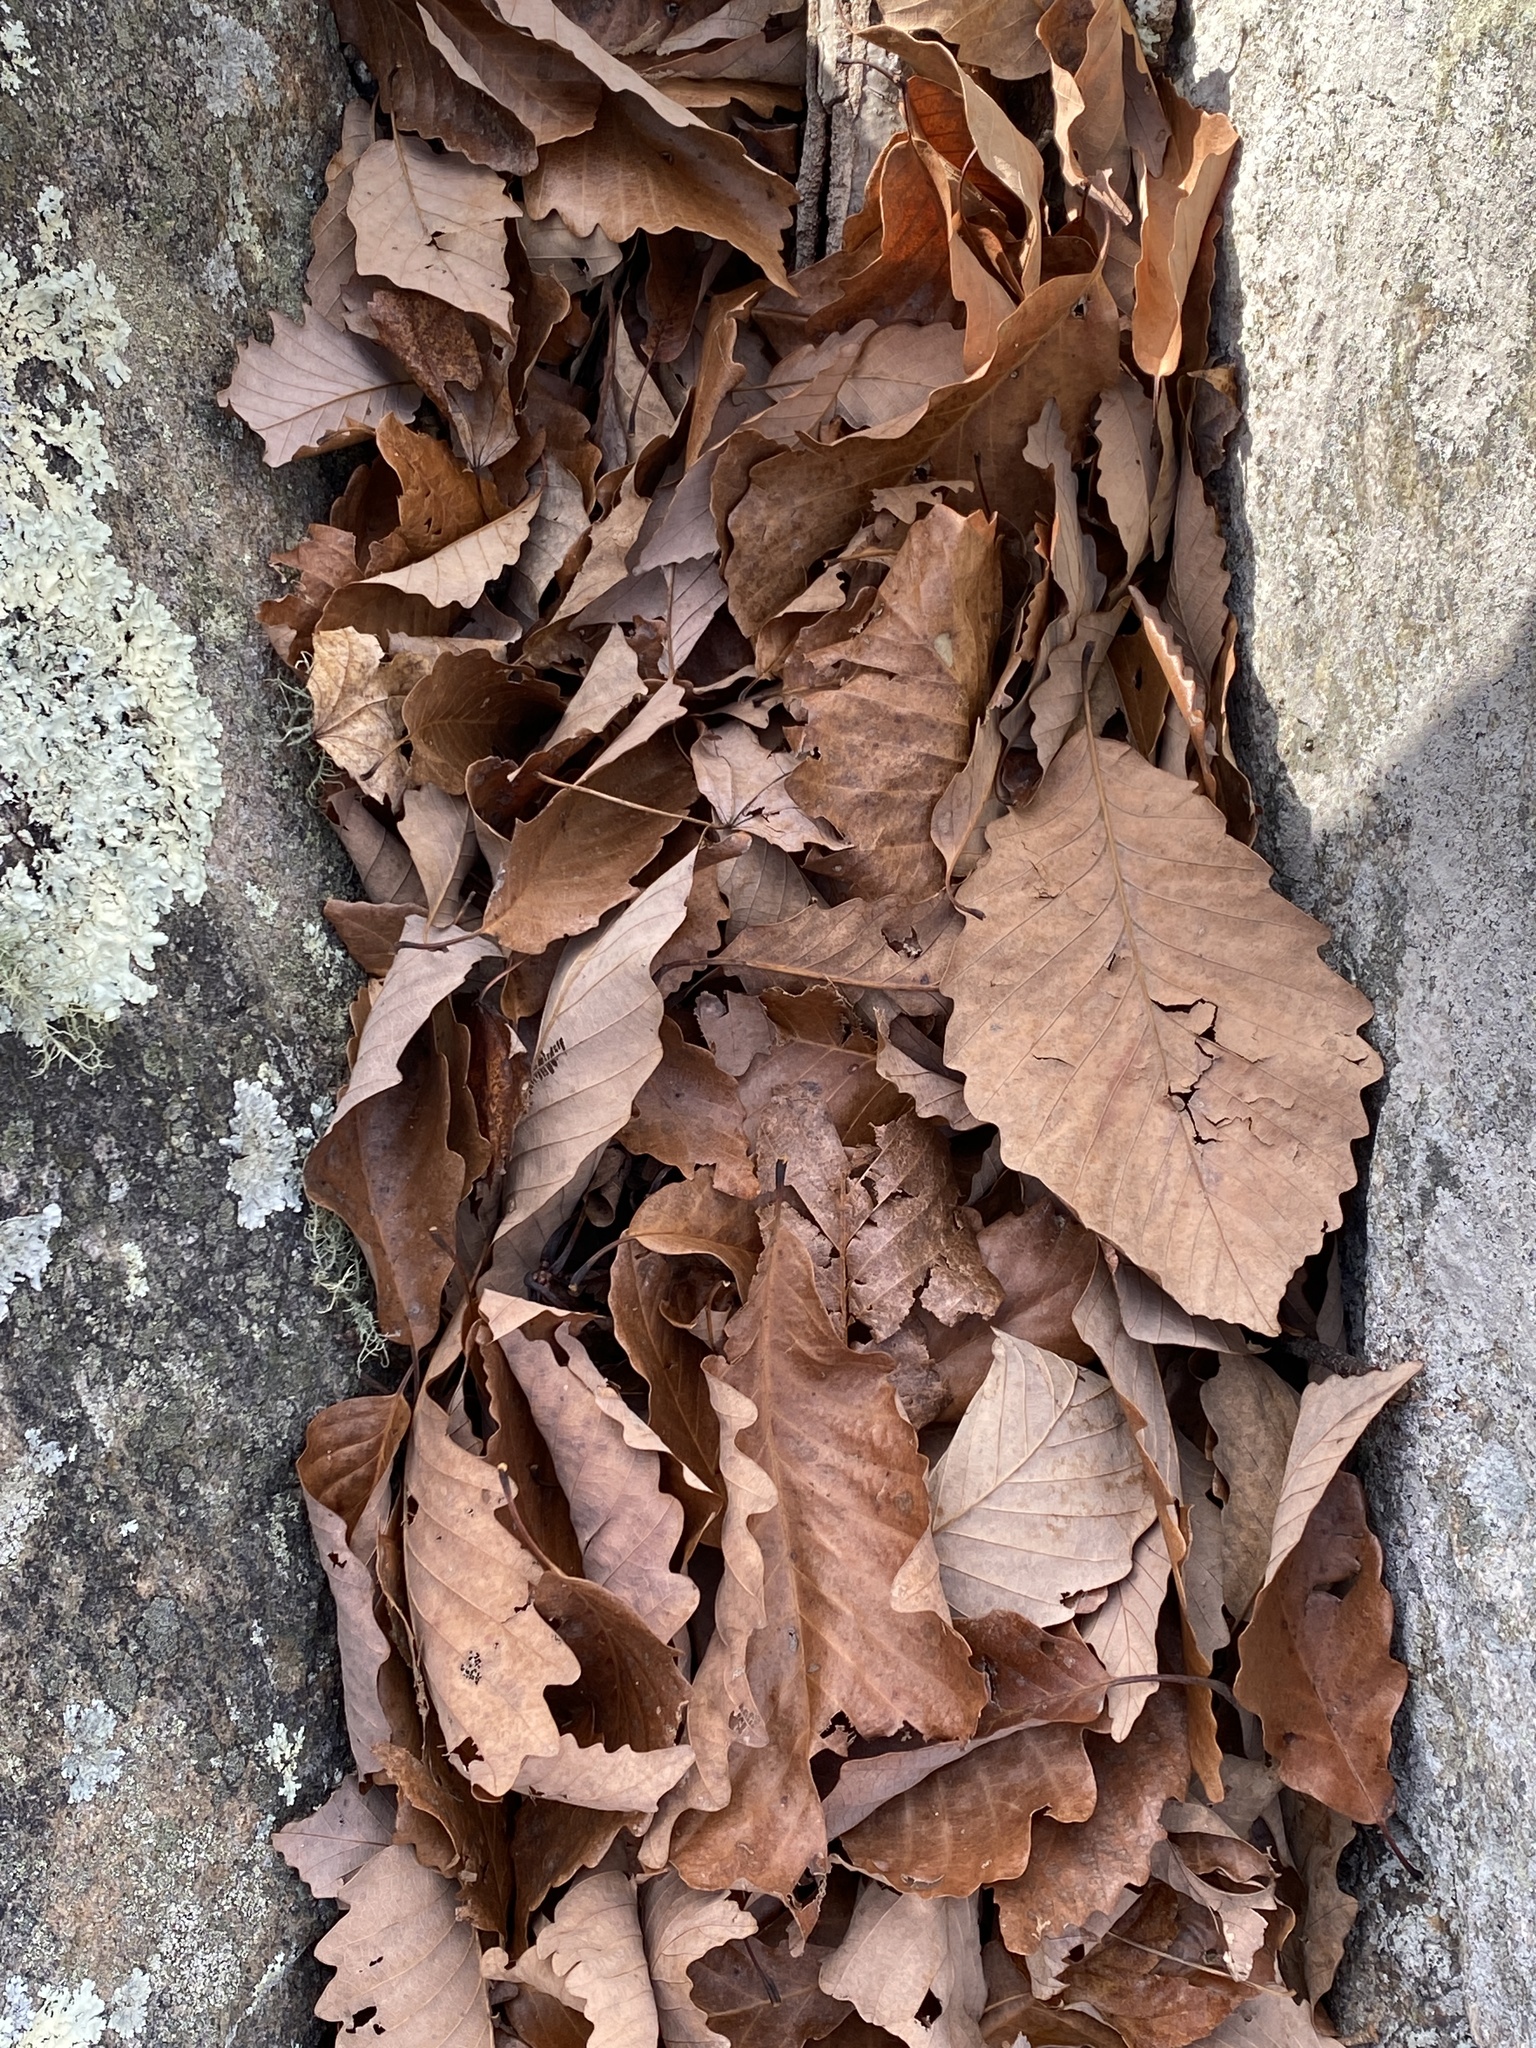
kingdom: Plantae
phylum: Tracheophyta
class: Magnoliopsida
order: Fagales
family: Fagaceae
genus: Quercus
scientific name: Quercus montana
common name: Chestnut oak
